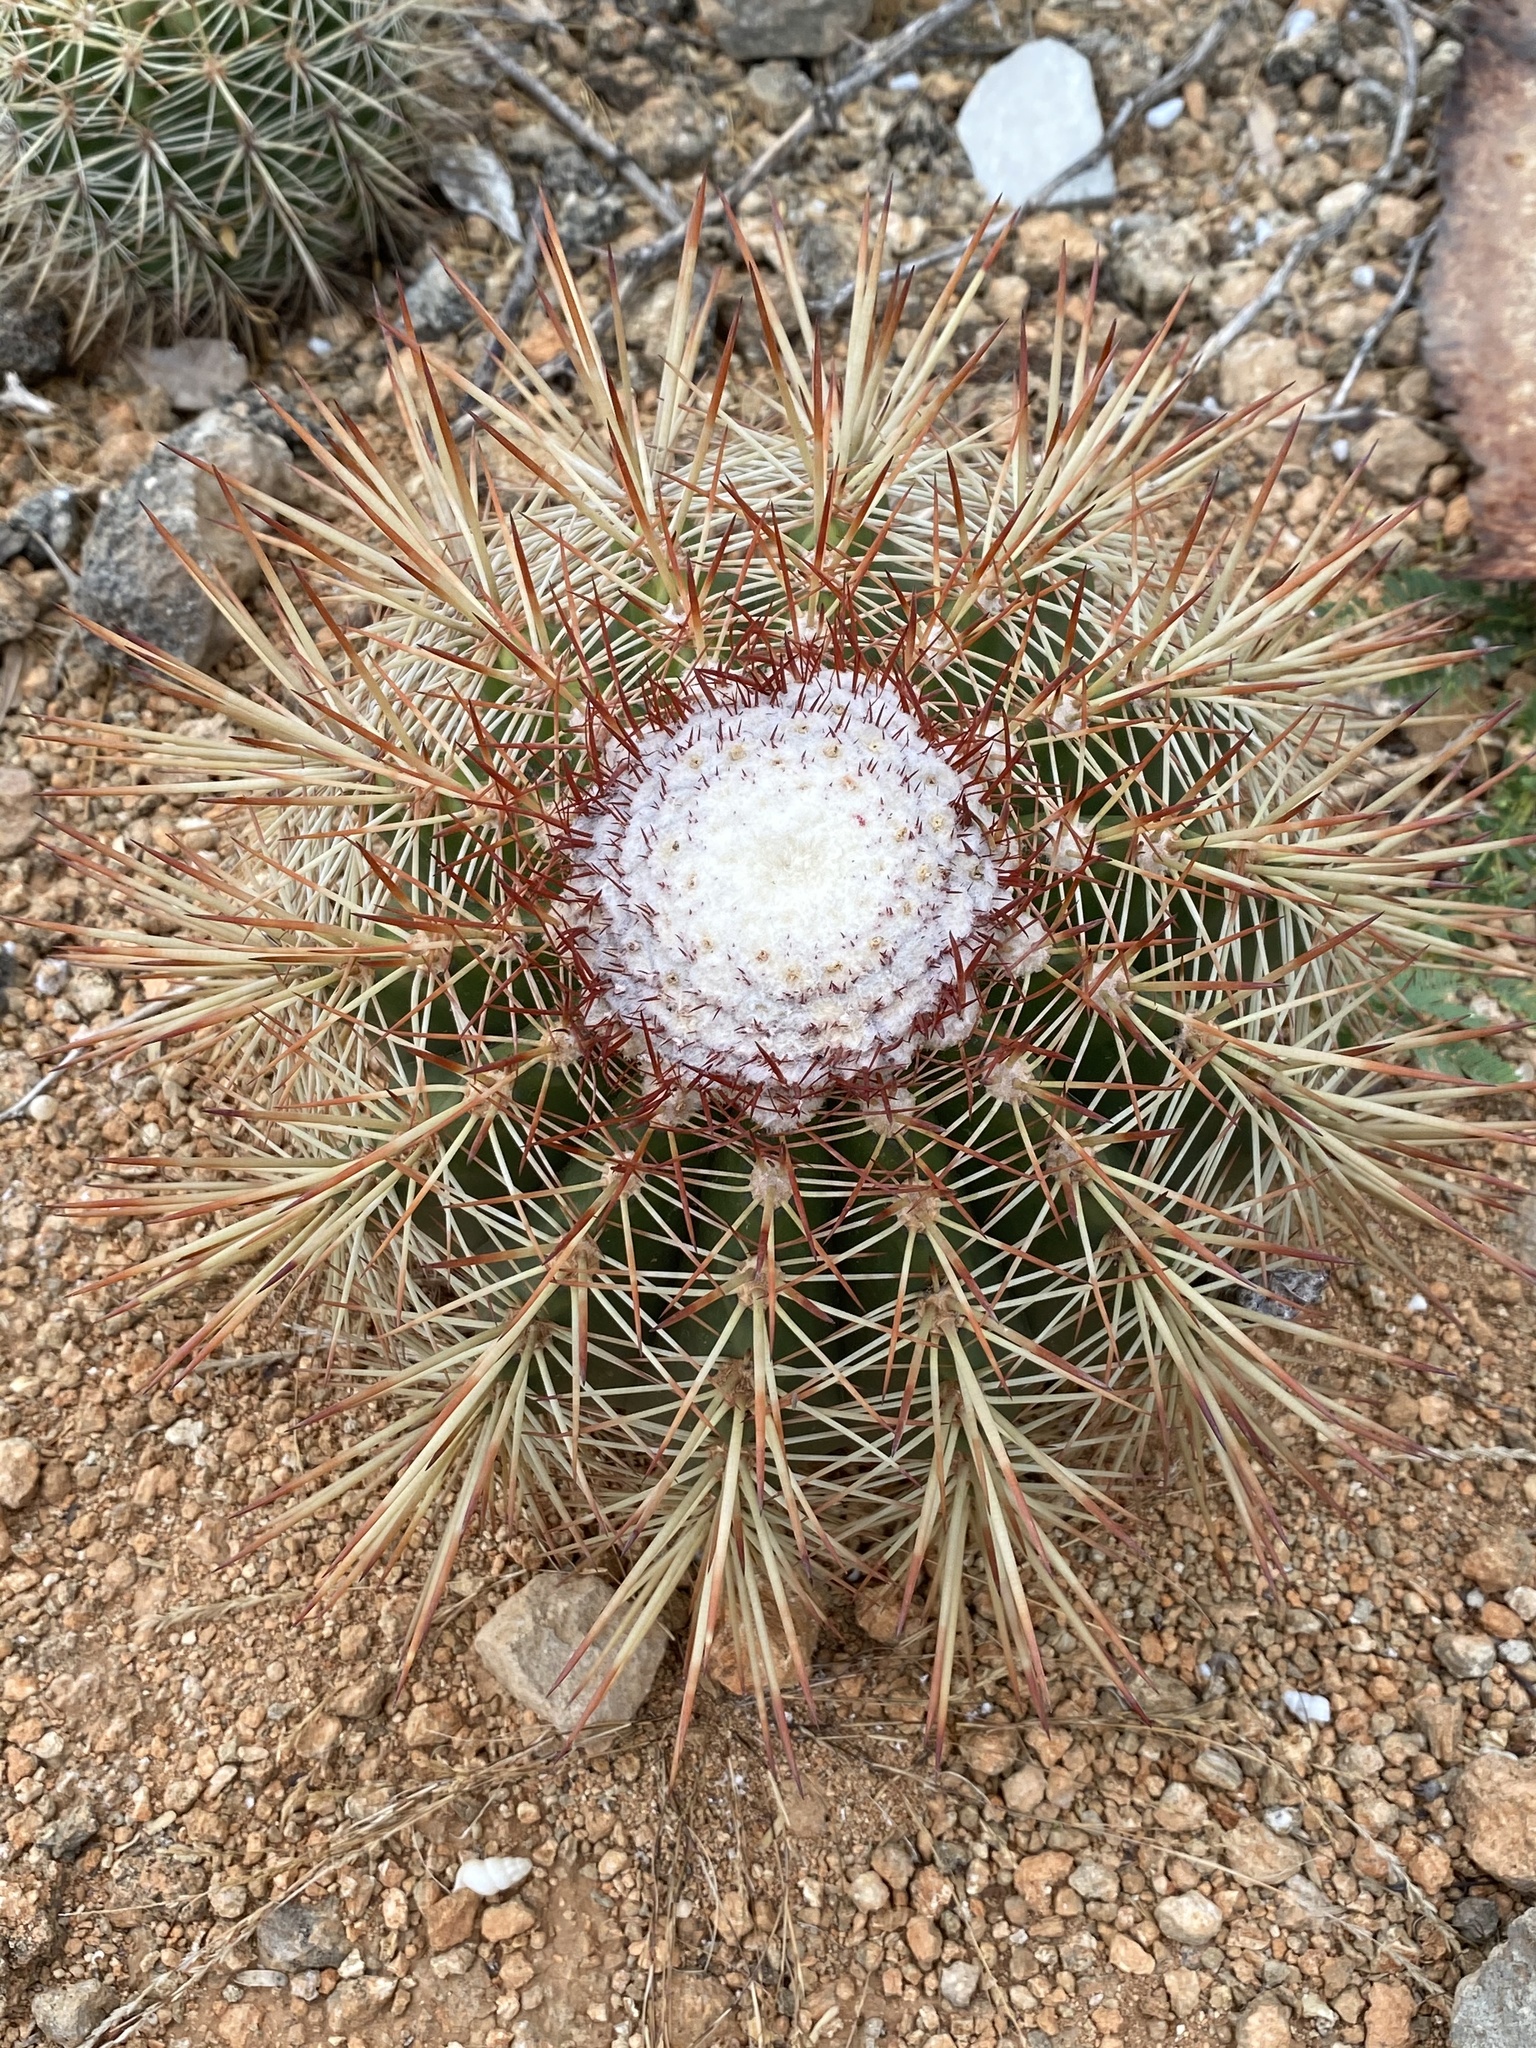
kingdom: Plantae
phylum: Tracheophyta
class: Magnoliopsida
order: Caryophyllales
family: Cactaceae
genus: Melocactus
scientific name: Melocactus macracanthos
